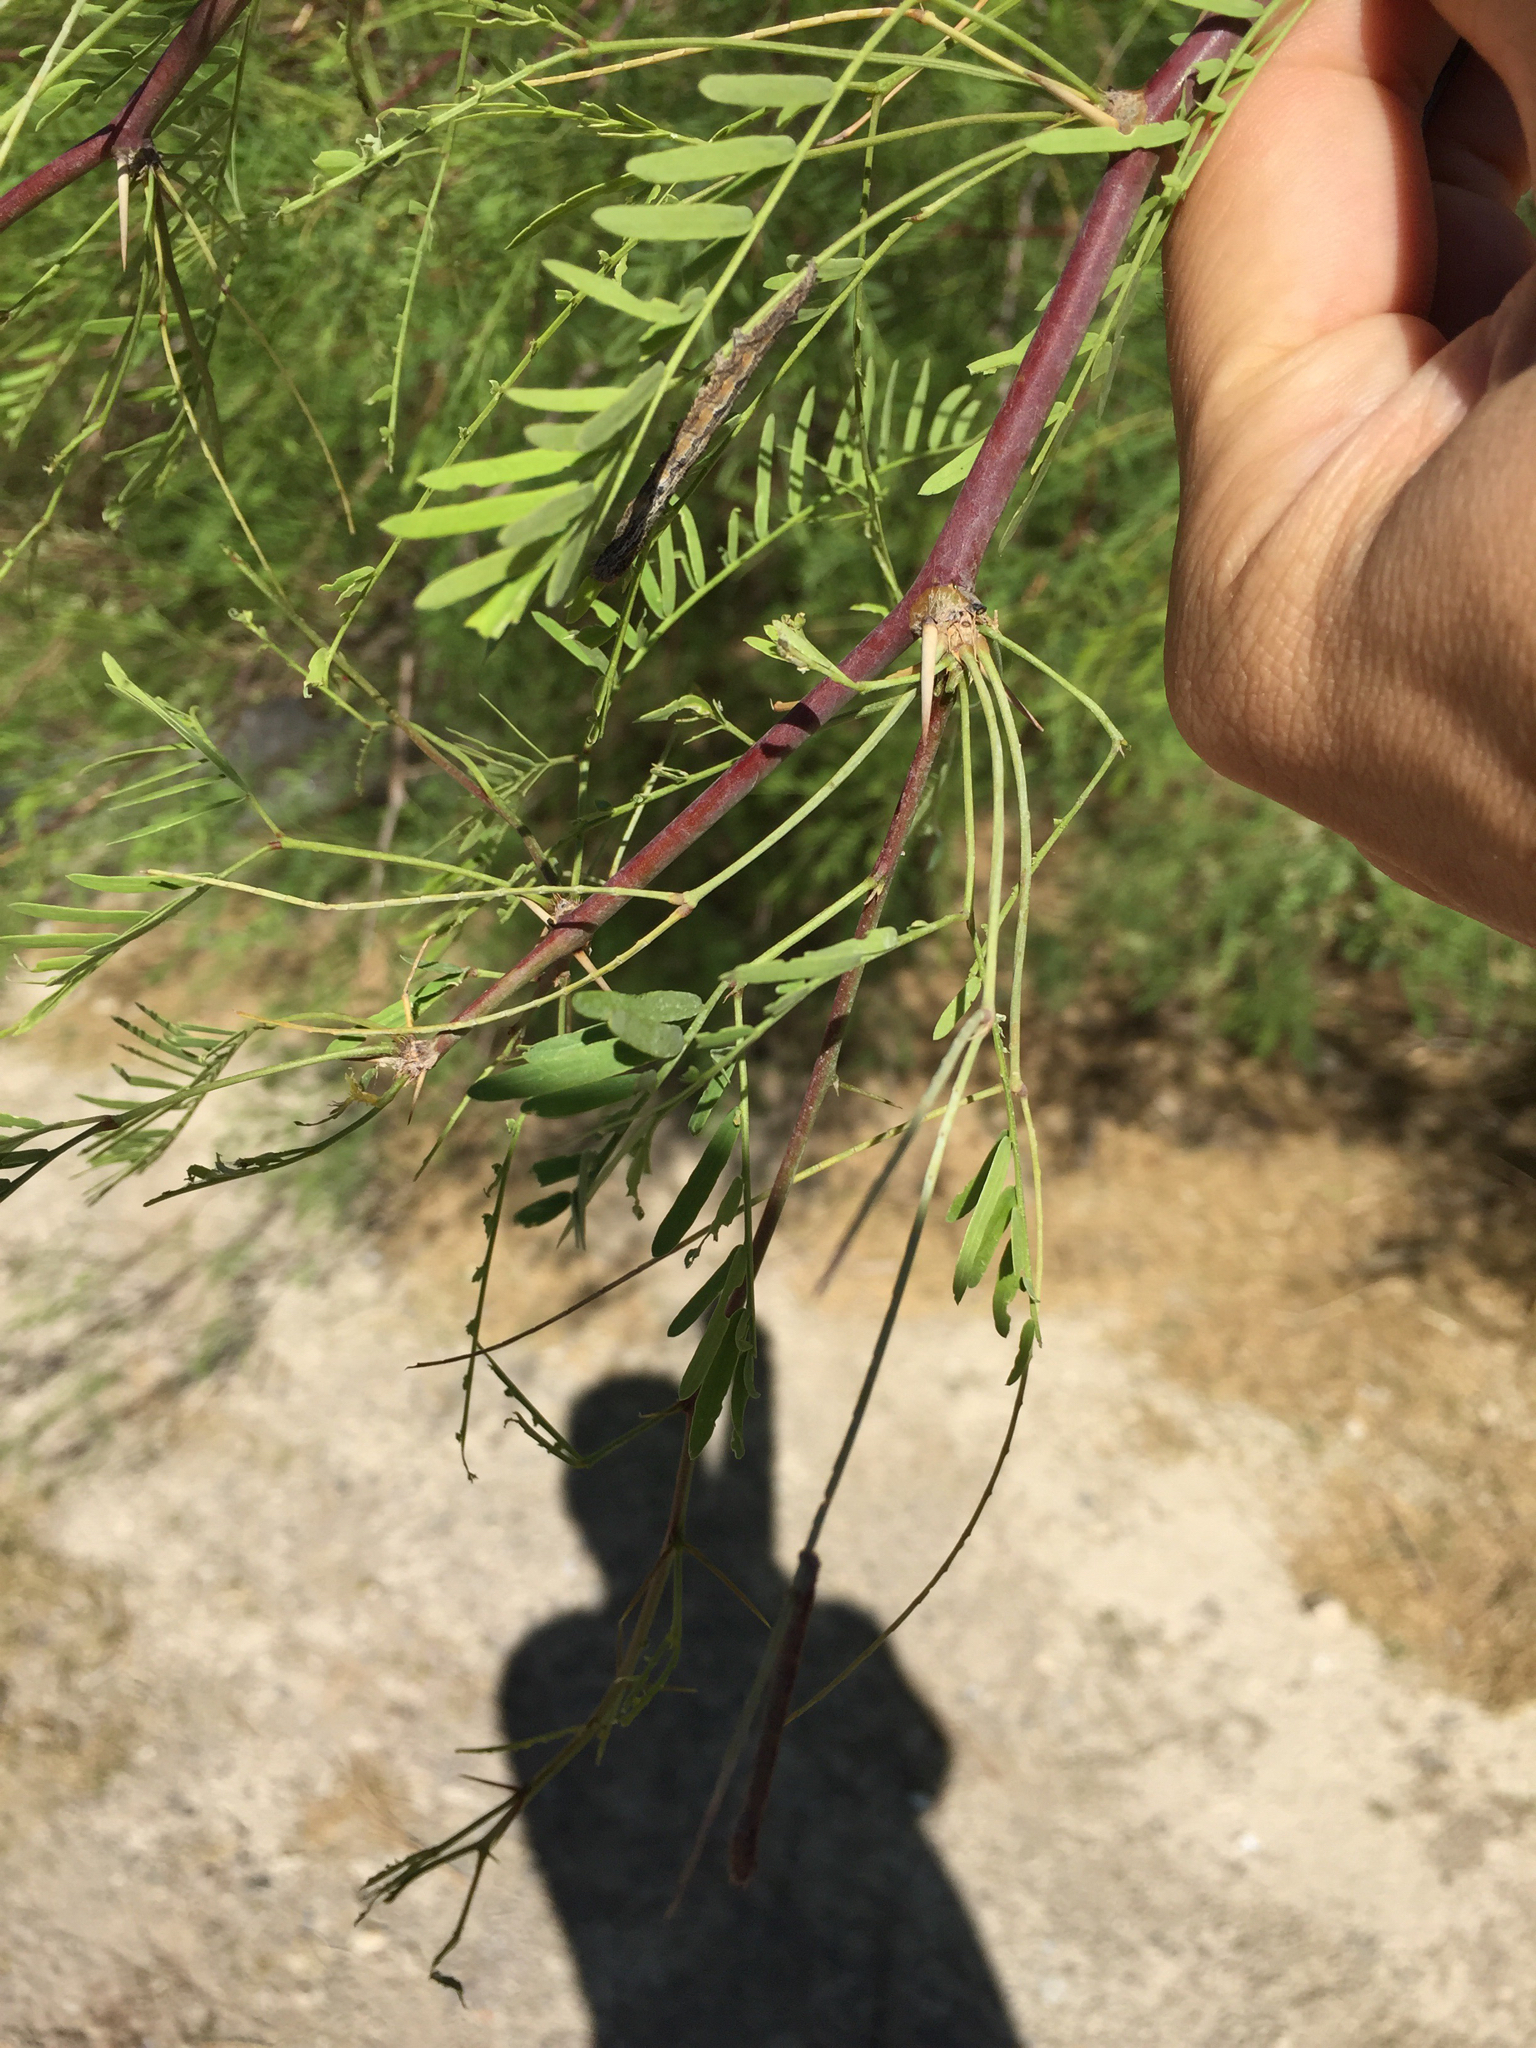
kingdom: Plantae
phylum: Tracheophyta
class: Magnoliopsida
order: Fabales
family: Fabaceae
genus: Prosopis
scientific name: Prosopis glandulosa
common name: Honey mesquite
